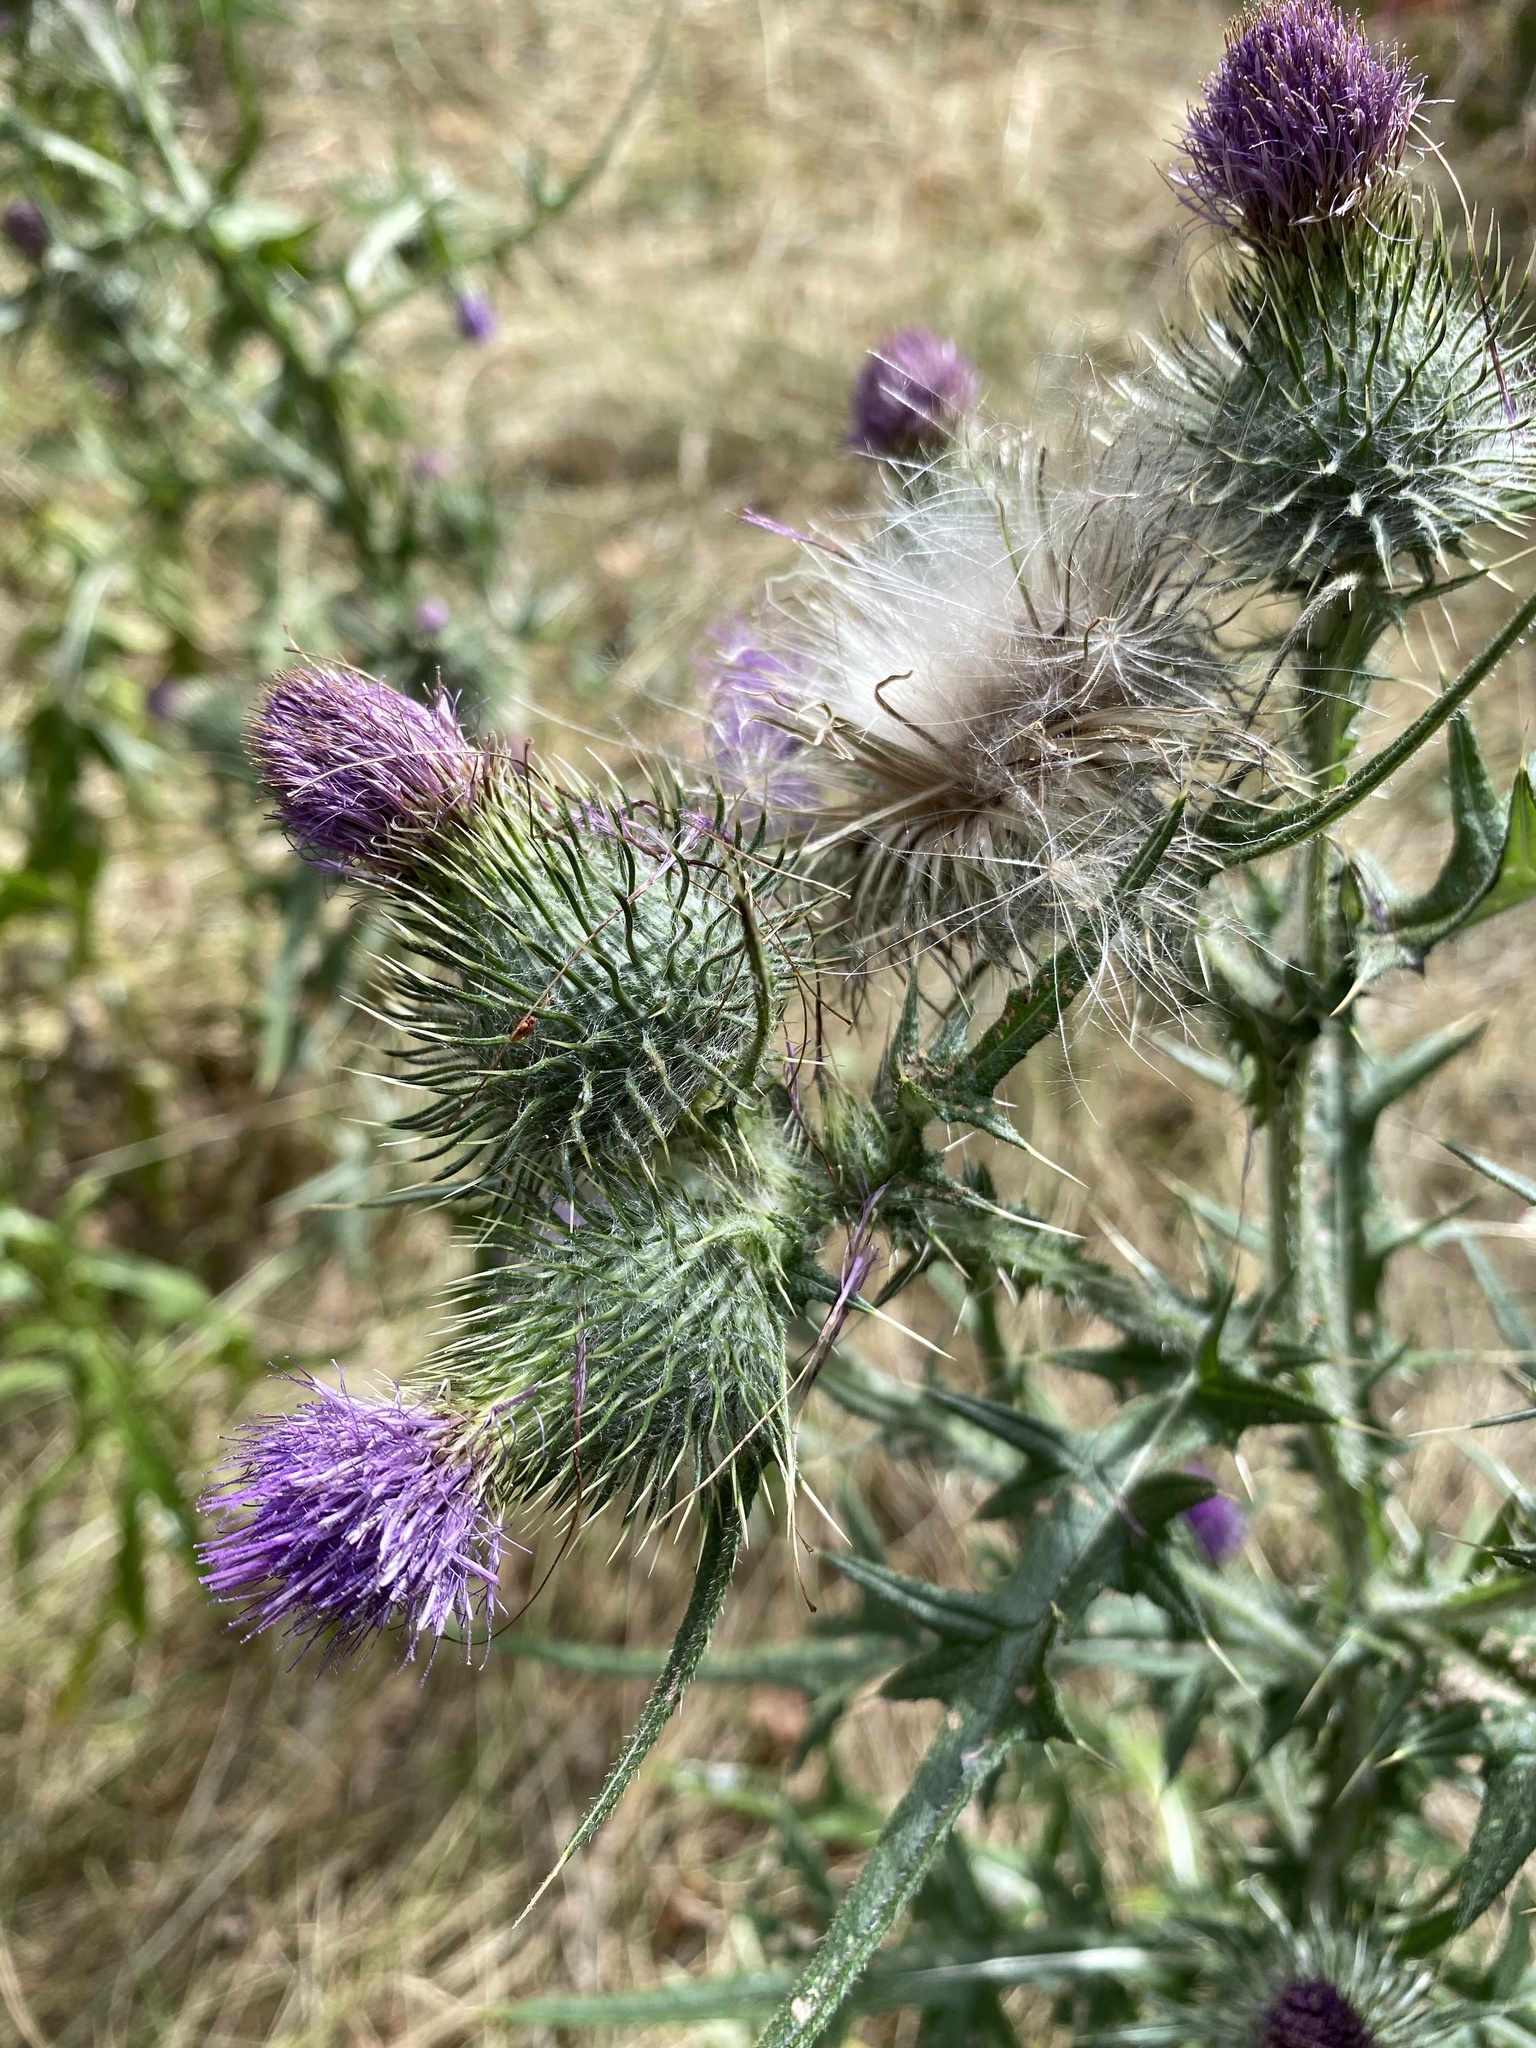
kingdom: Plantae
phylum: Tracheophyta
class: Magnoliopsida
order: Asterales
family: Asteraceae
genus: Cirsium
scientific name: Cirsium vulgare
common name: Bull thistle
